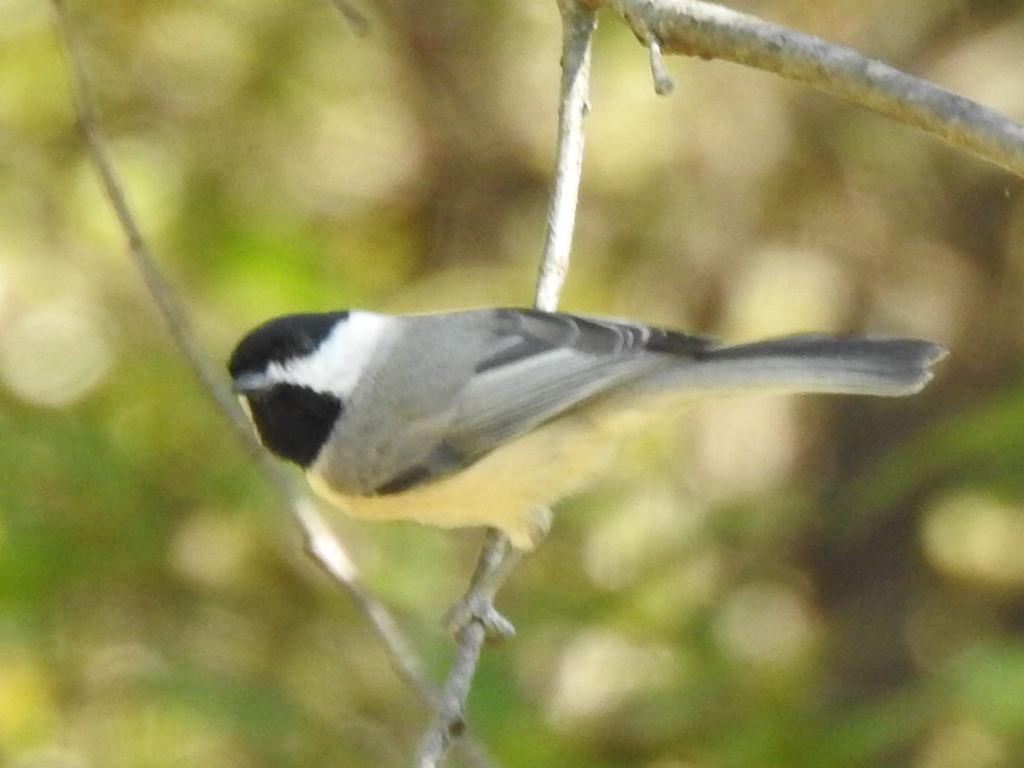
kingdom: Animalia
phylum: Chordata
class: Aves
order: Passeriformes
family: Paridae
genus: Poecile
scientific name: Poecile carolinensis
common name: Carolina chickadee
